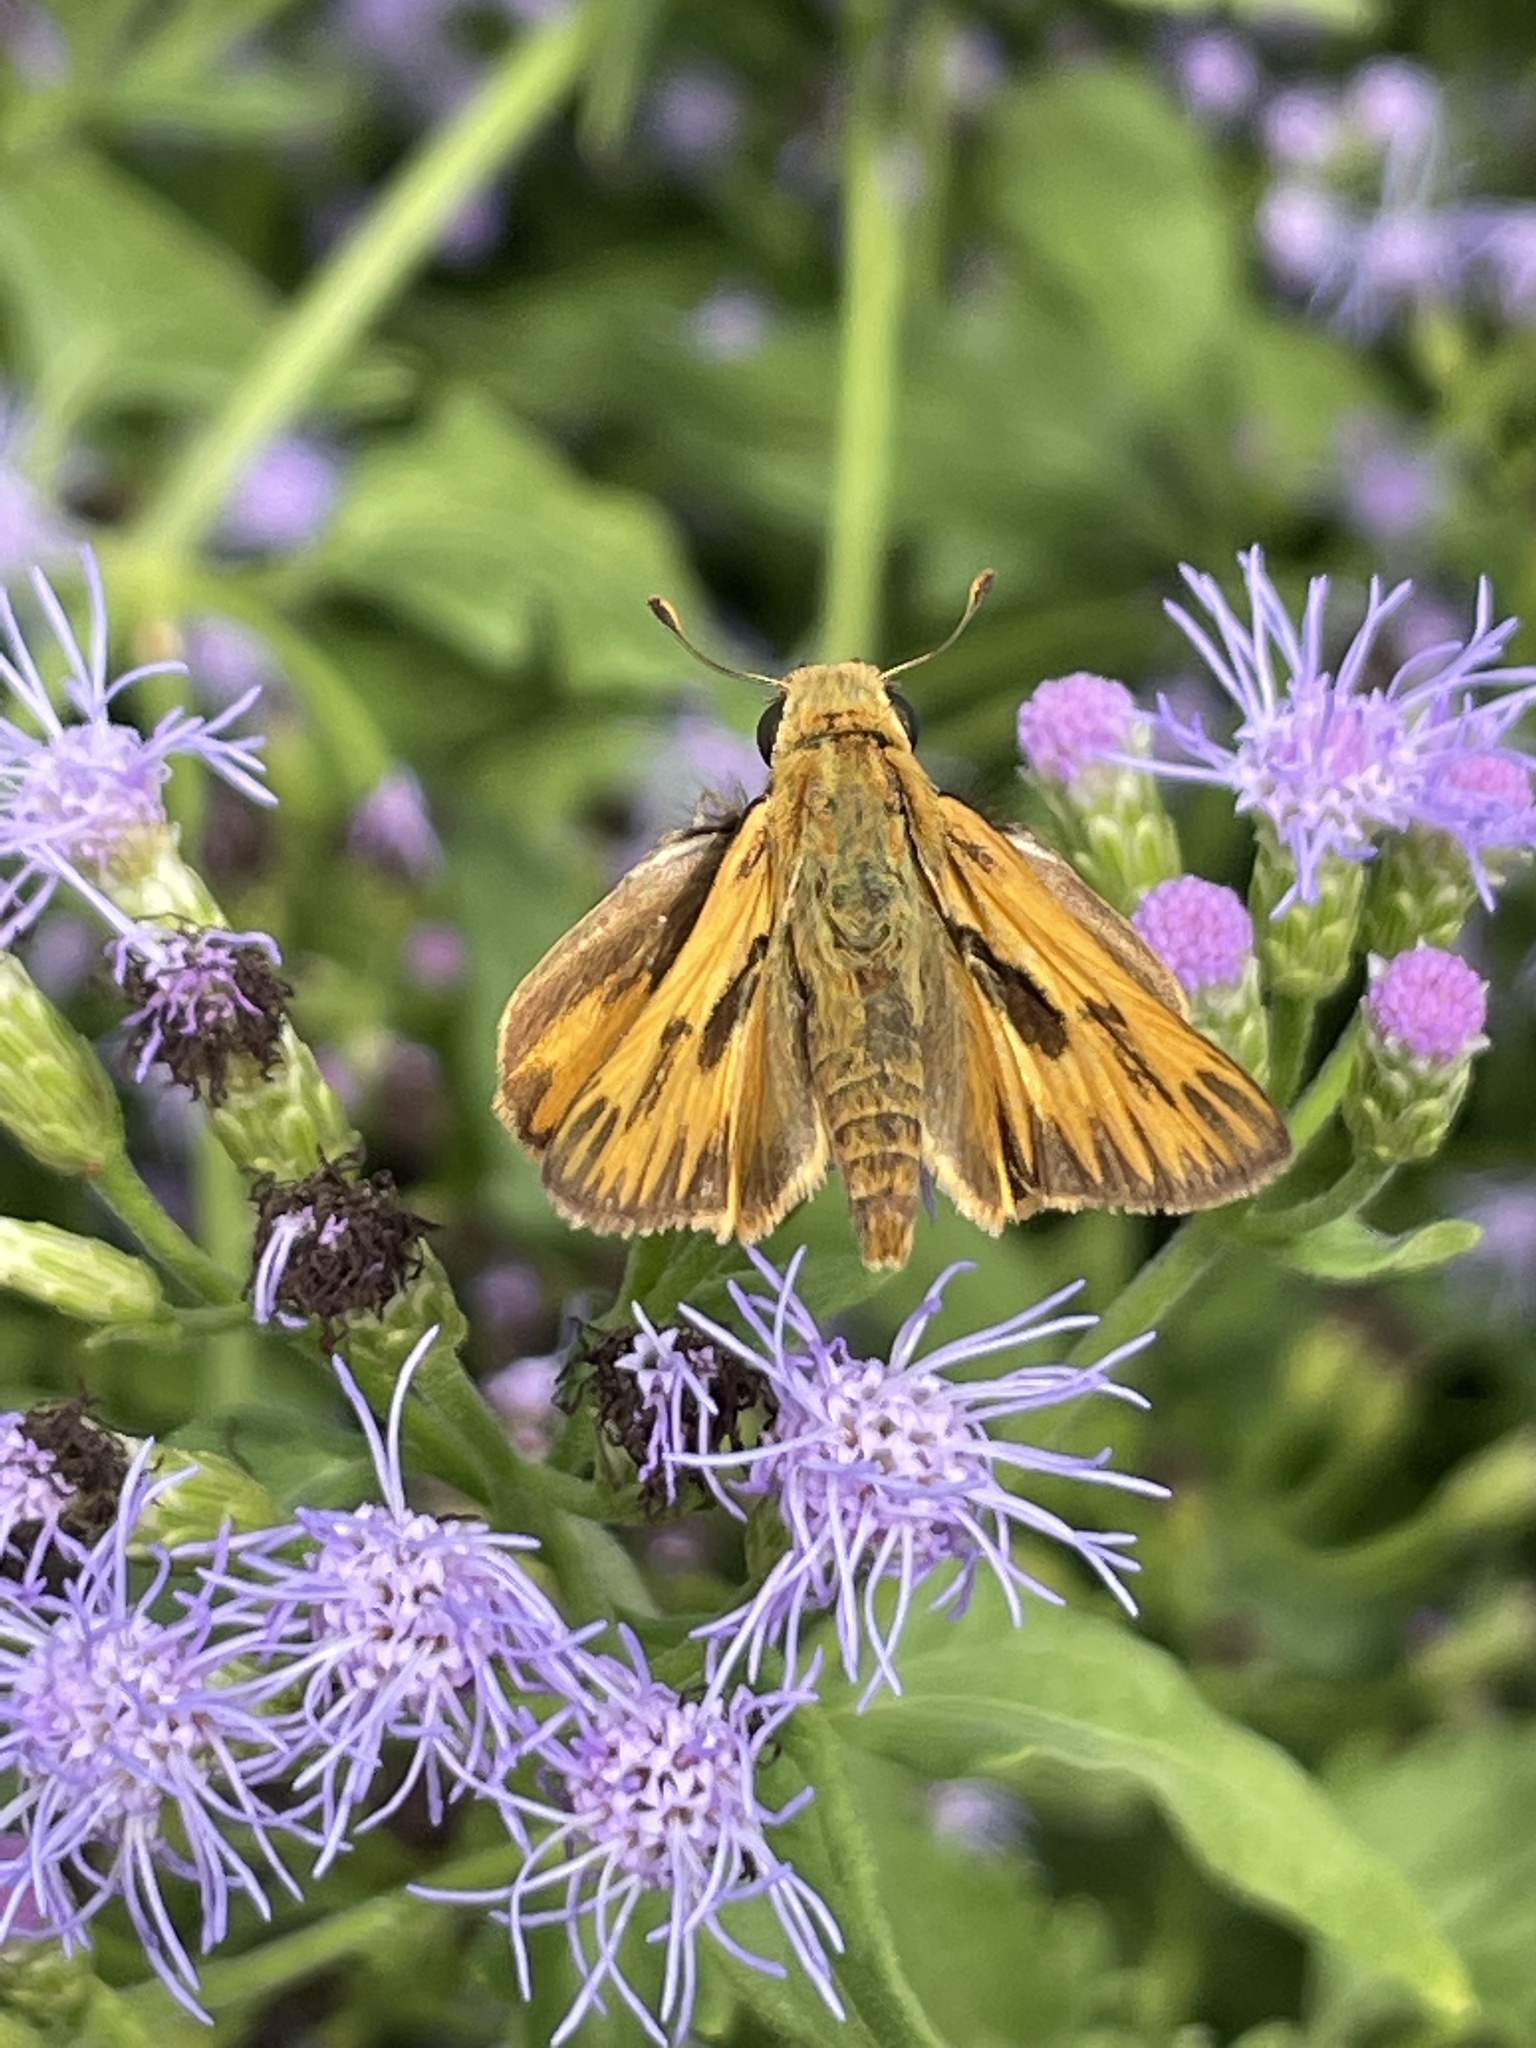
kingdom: Animalia
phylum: Arthropoda
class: Insecta
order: Lepidoptera
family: Hesperiidae
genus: Hylephila
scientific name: Hylephila phyleus
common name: Fiery skipper
